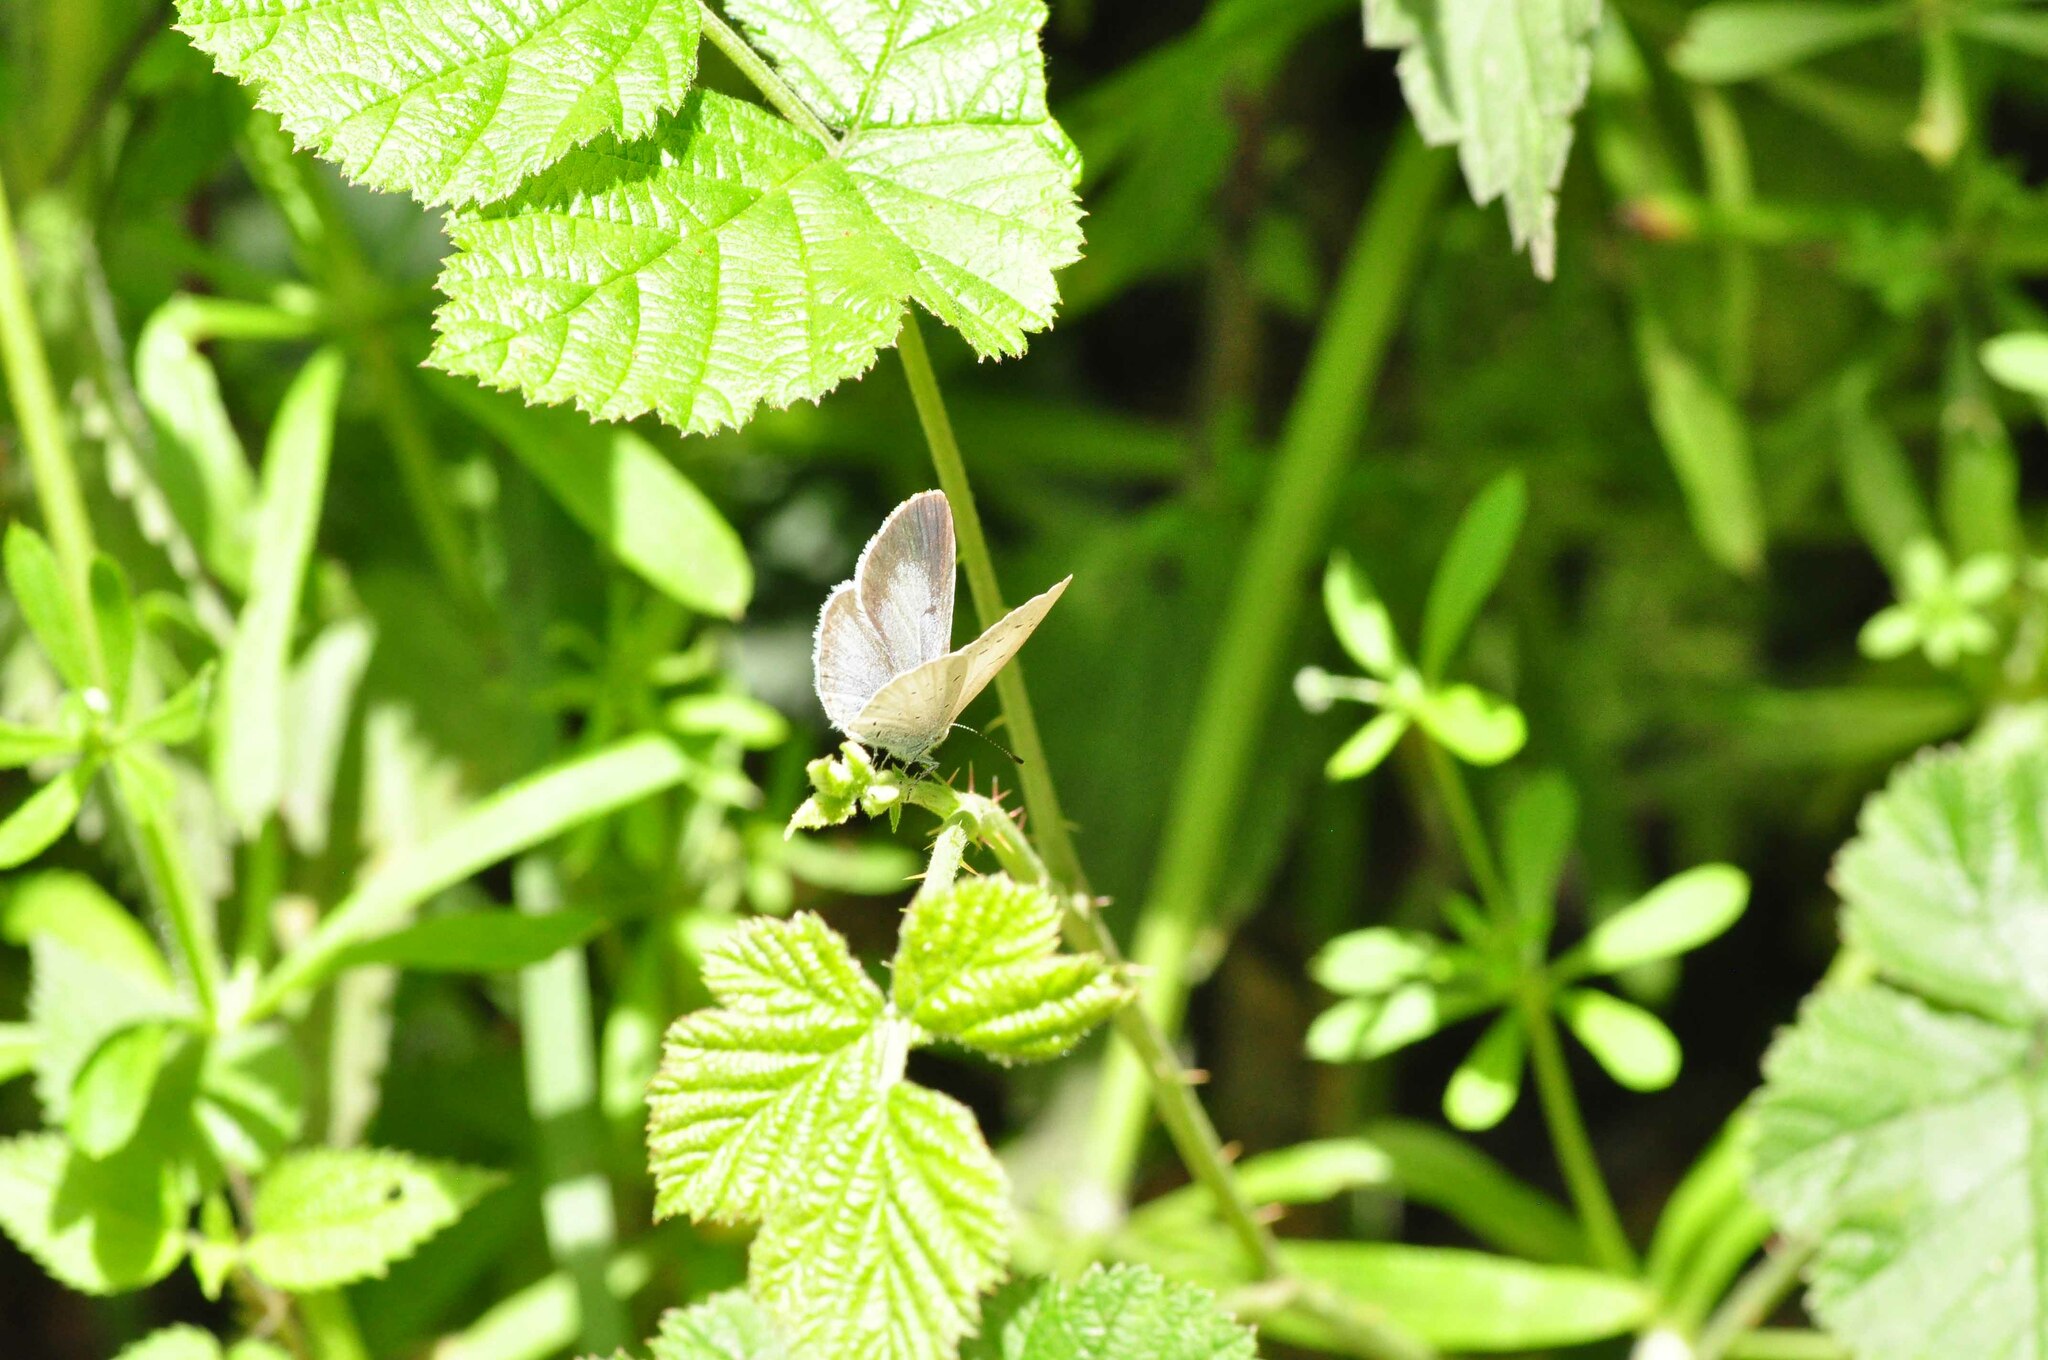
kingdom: Animalia
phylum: Arthropoda
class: Insecta
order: Lepidoptera
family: Lycaenidae
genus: Celastrina
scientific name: Celastrina argiolus
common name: Holly blue
